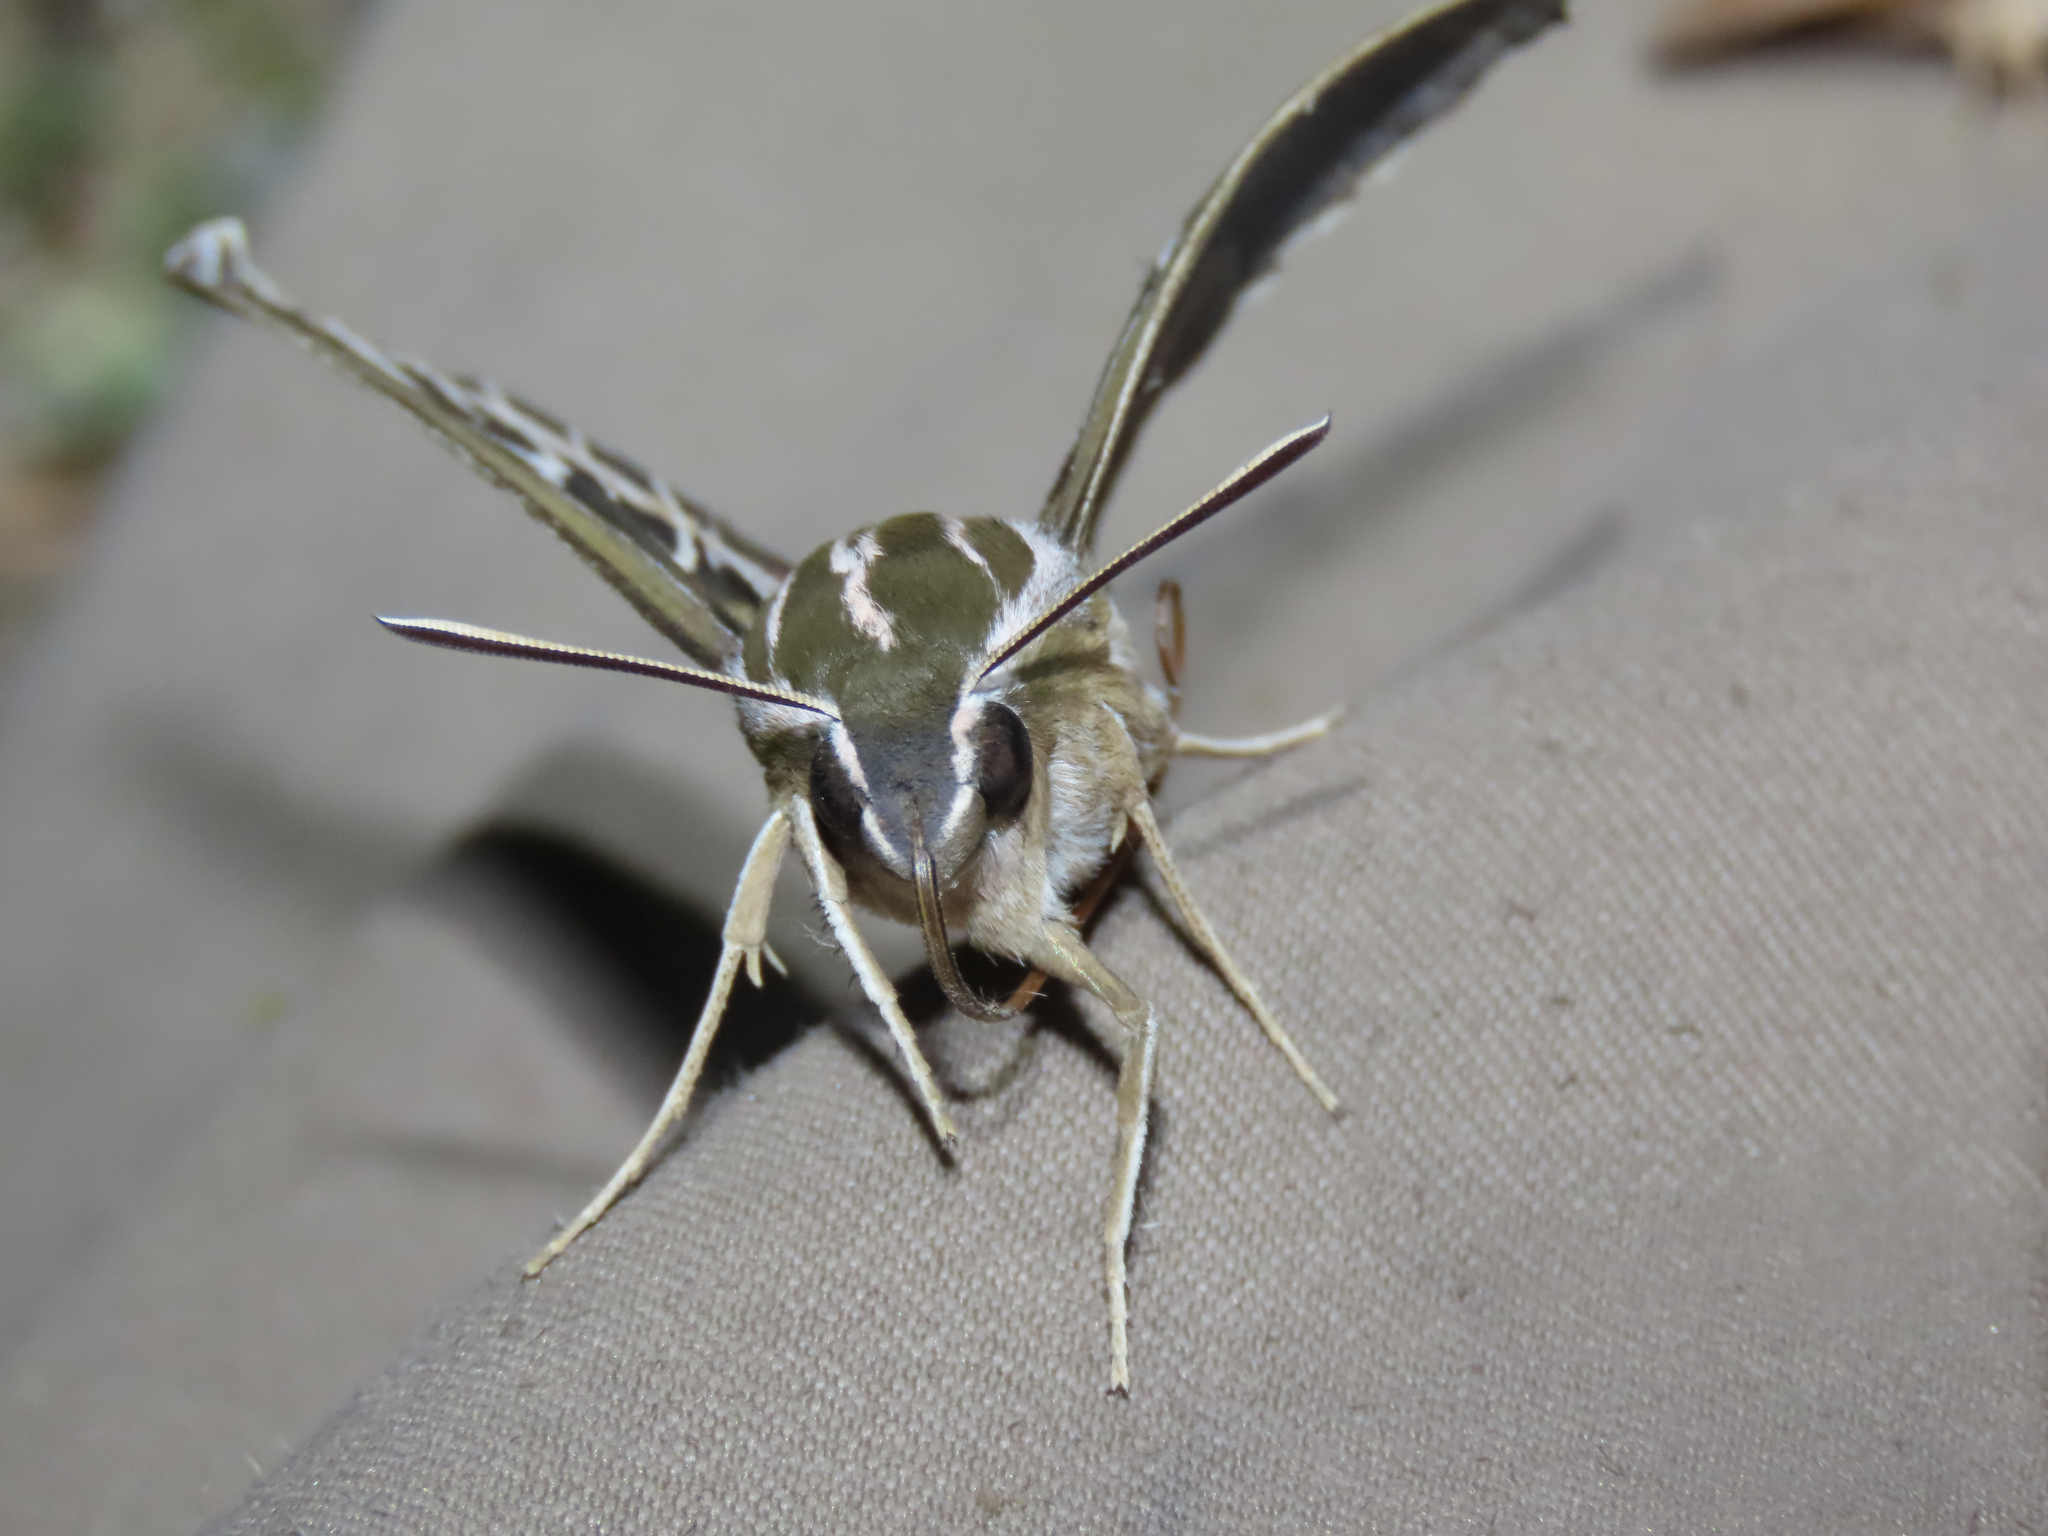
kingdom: Animalia
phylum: Arthropoda
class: Insecta
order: Lepidoptera
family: Sphingidae
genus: Hyles
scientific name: Hyles lineata
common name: White-lined sphinx
